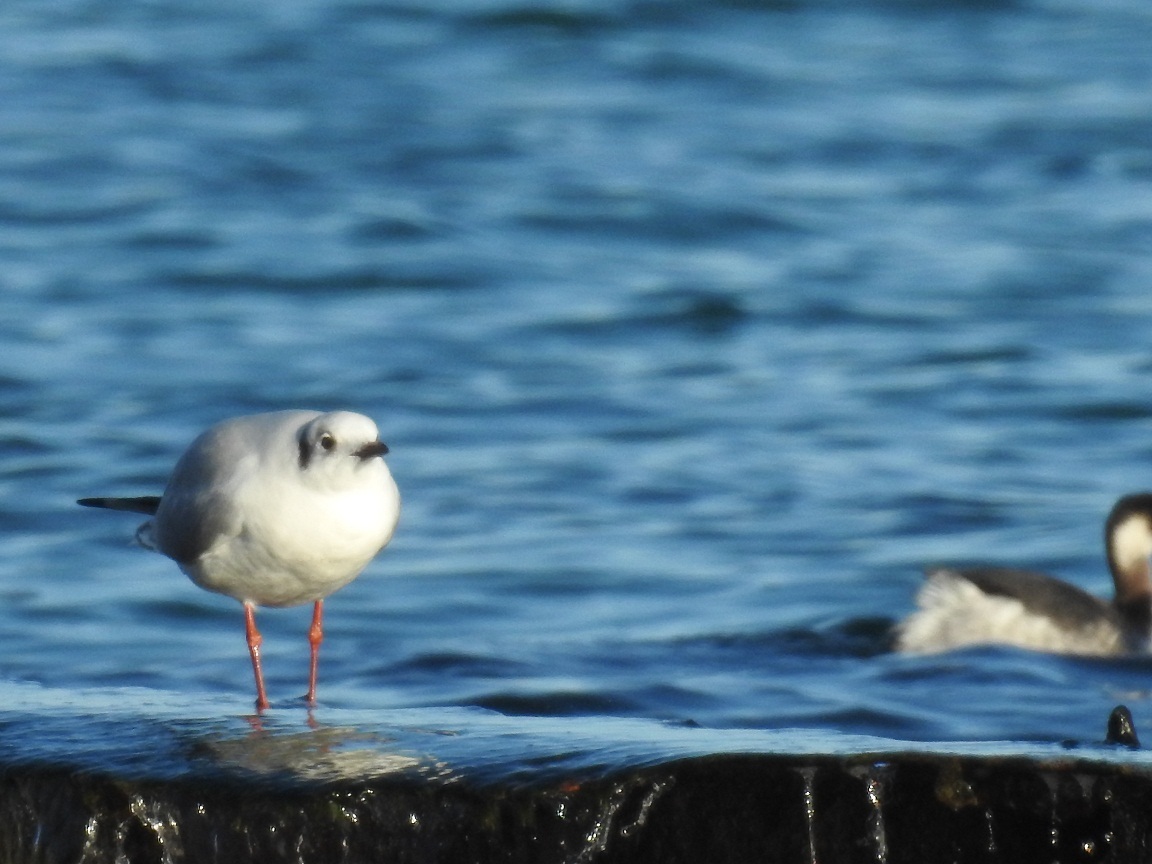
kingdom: Animalia
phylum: Chordata
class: Aves
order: Charadriiformes
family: Laridae
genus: Chroicocephalus
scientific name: Chroicocephalus ridibundus
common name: Black-headed gull
